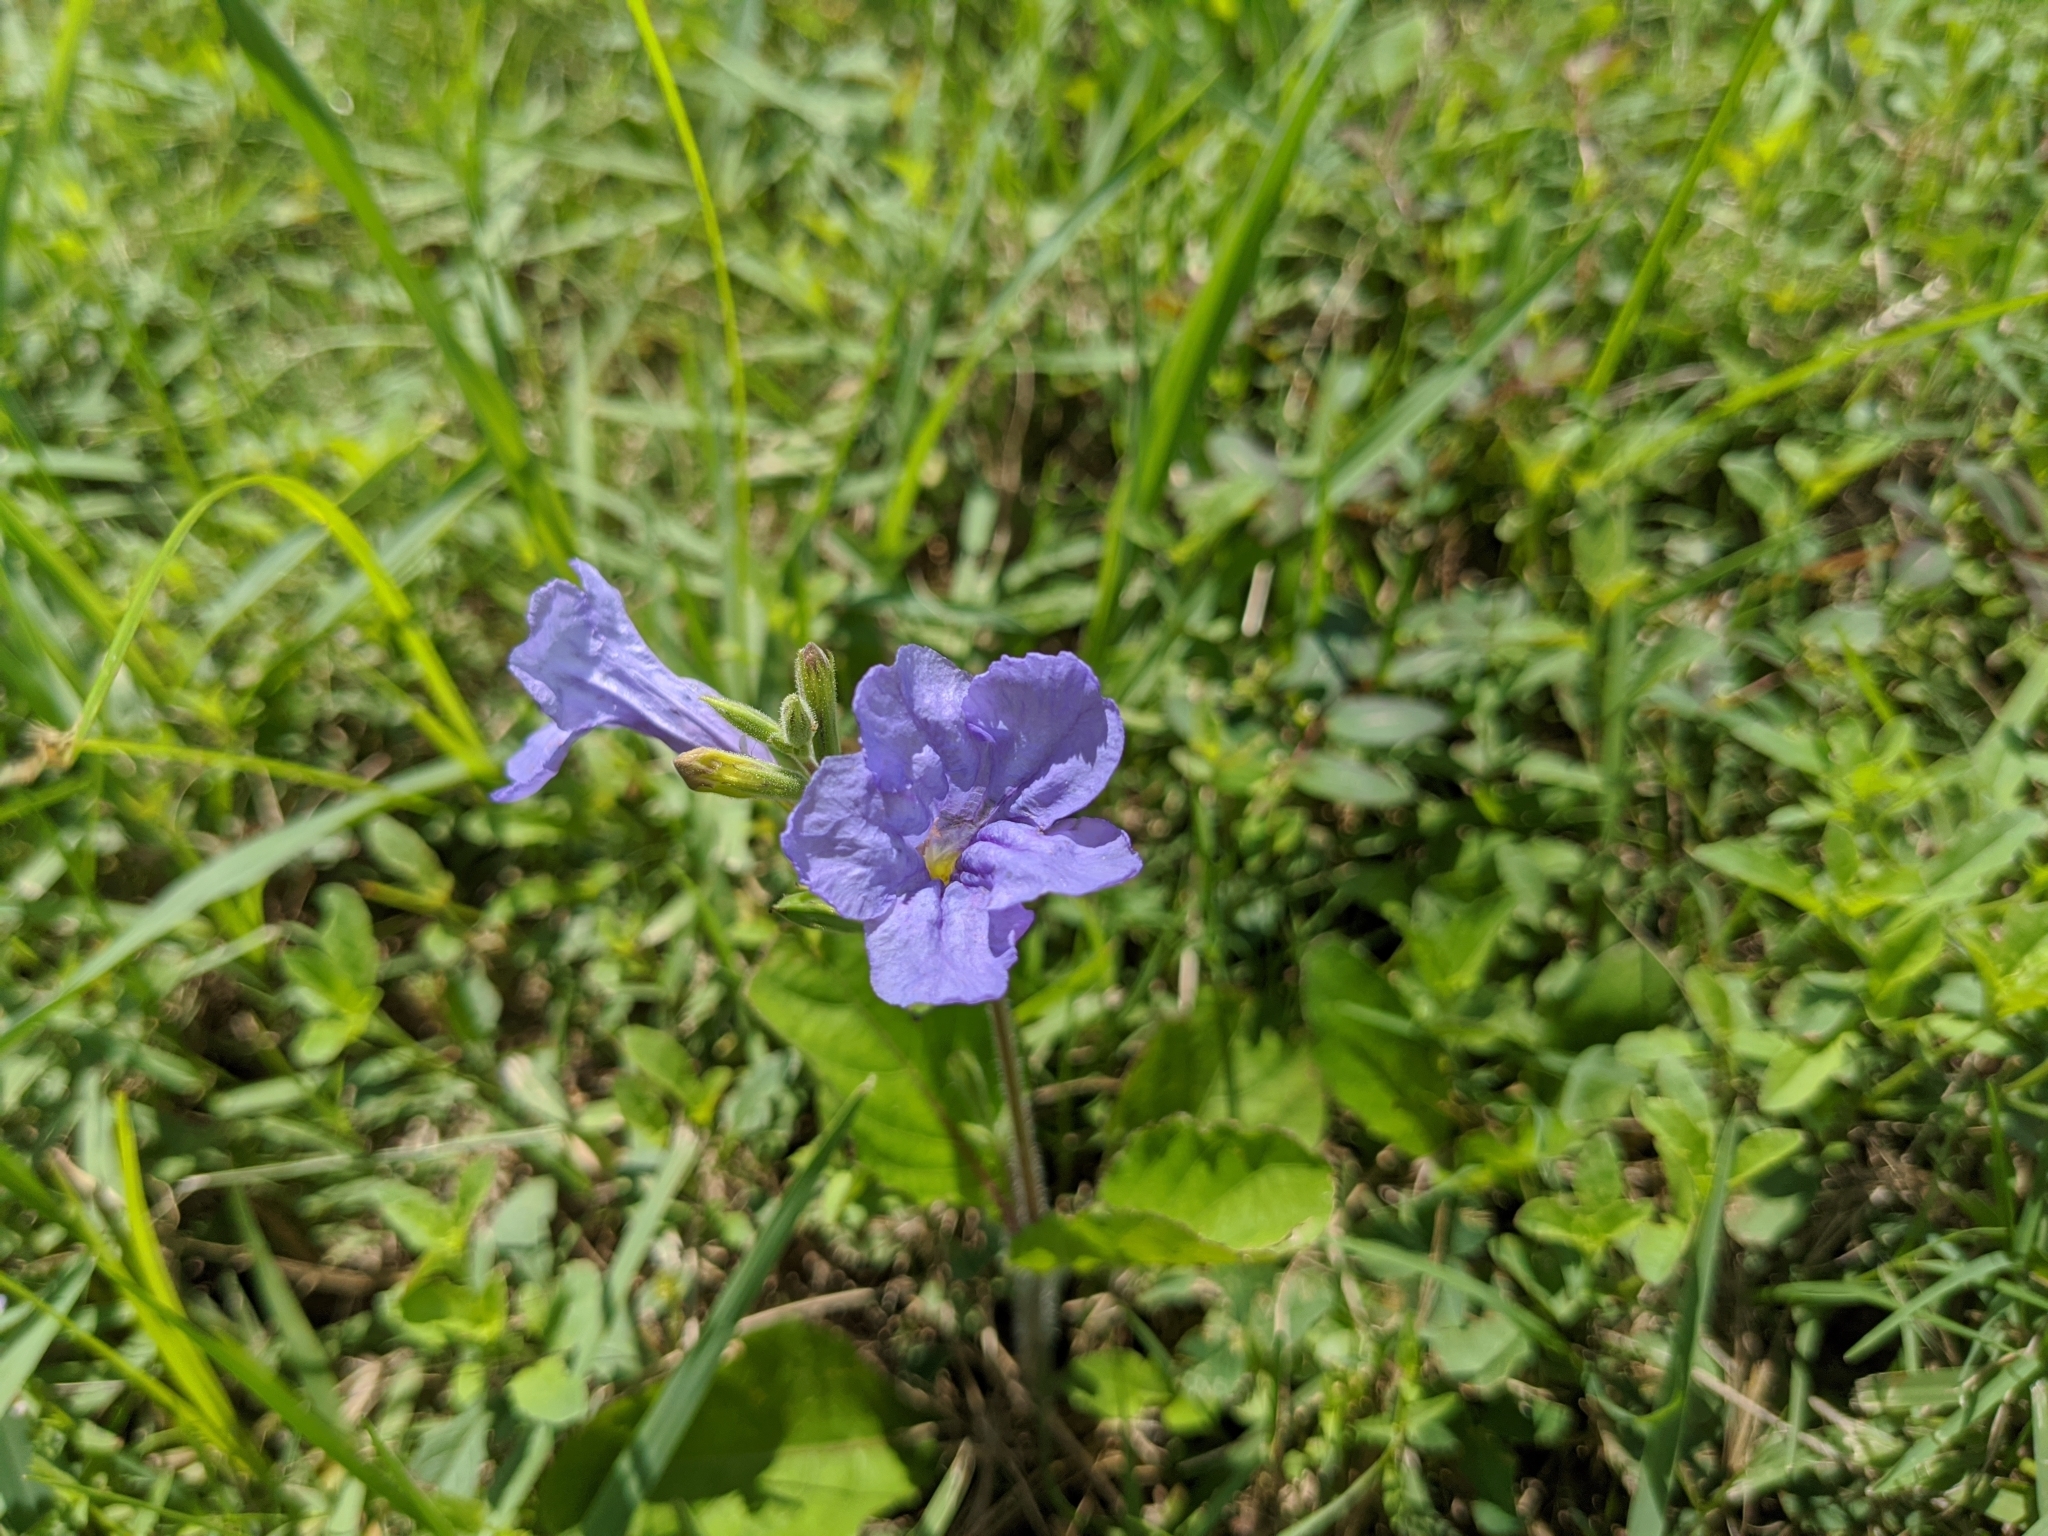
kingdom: Plantae
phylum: Tracheophyta
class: Magnoliopsida
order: Lamiales
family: Acanthaceae
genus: Ruellia
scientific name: Ruellia ciliatiflora
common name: Hairyflower wild petunia
